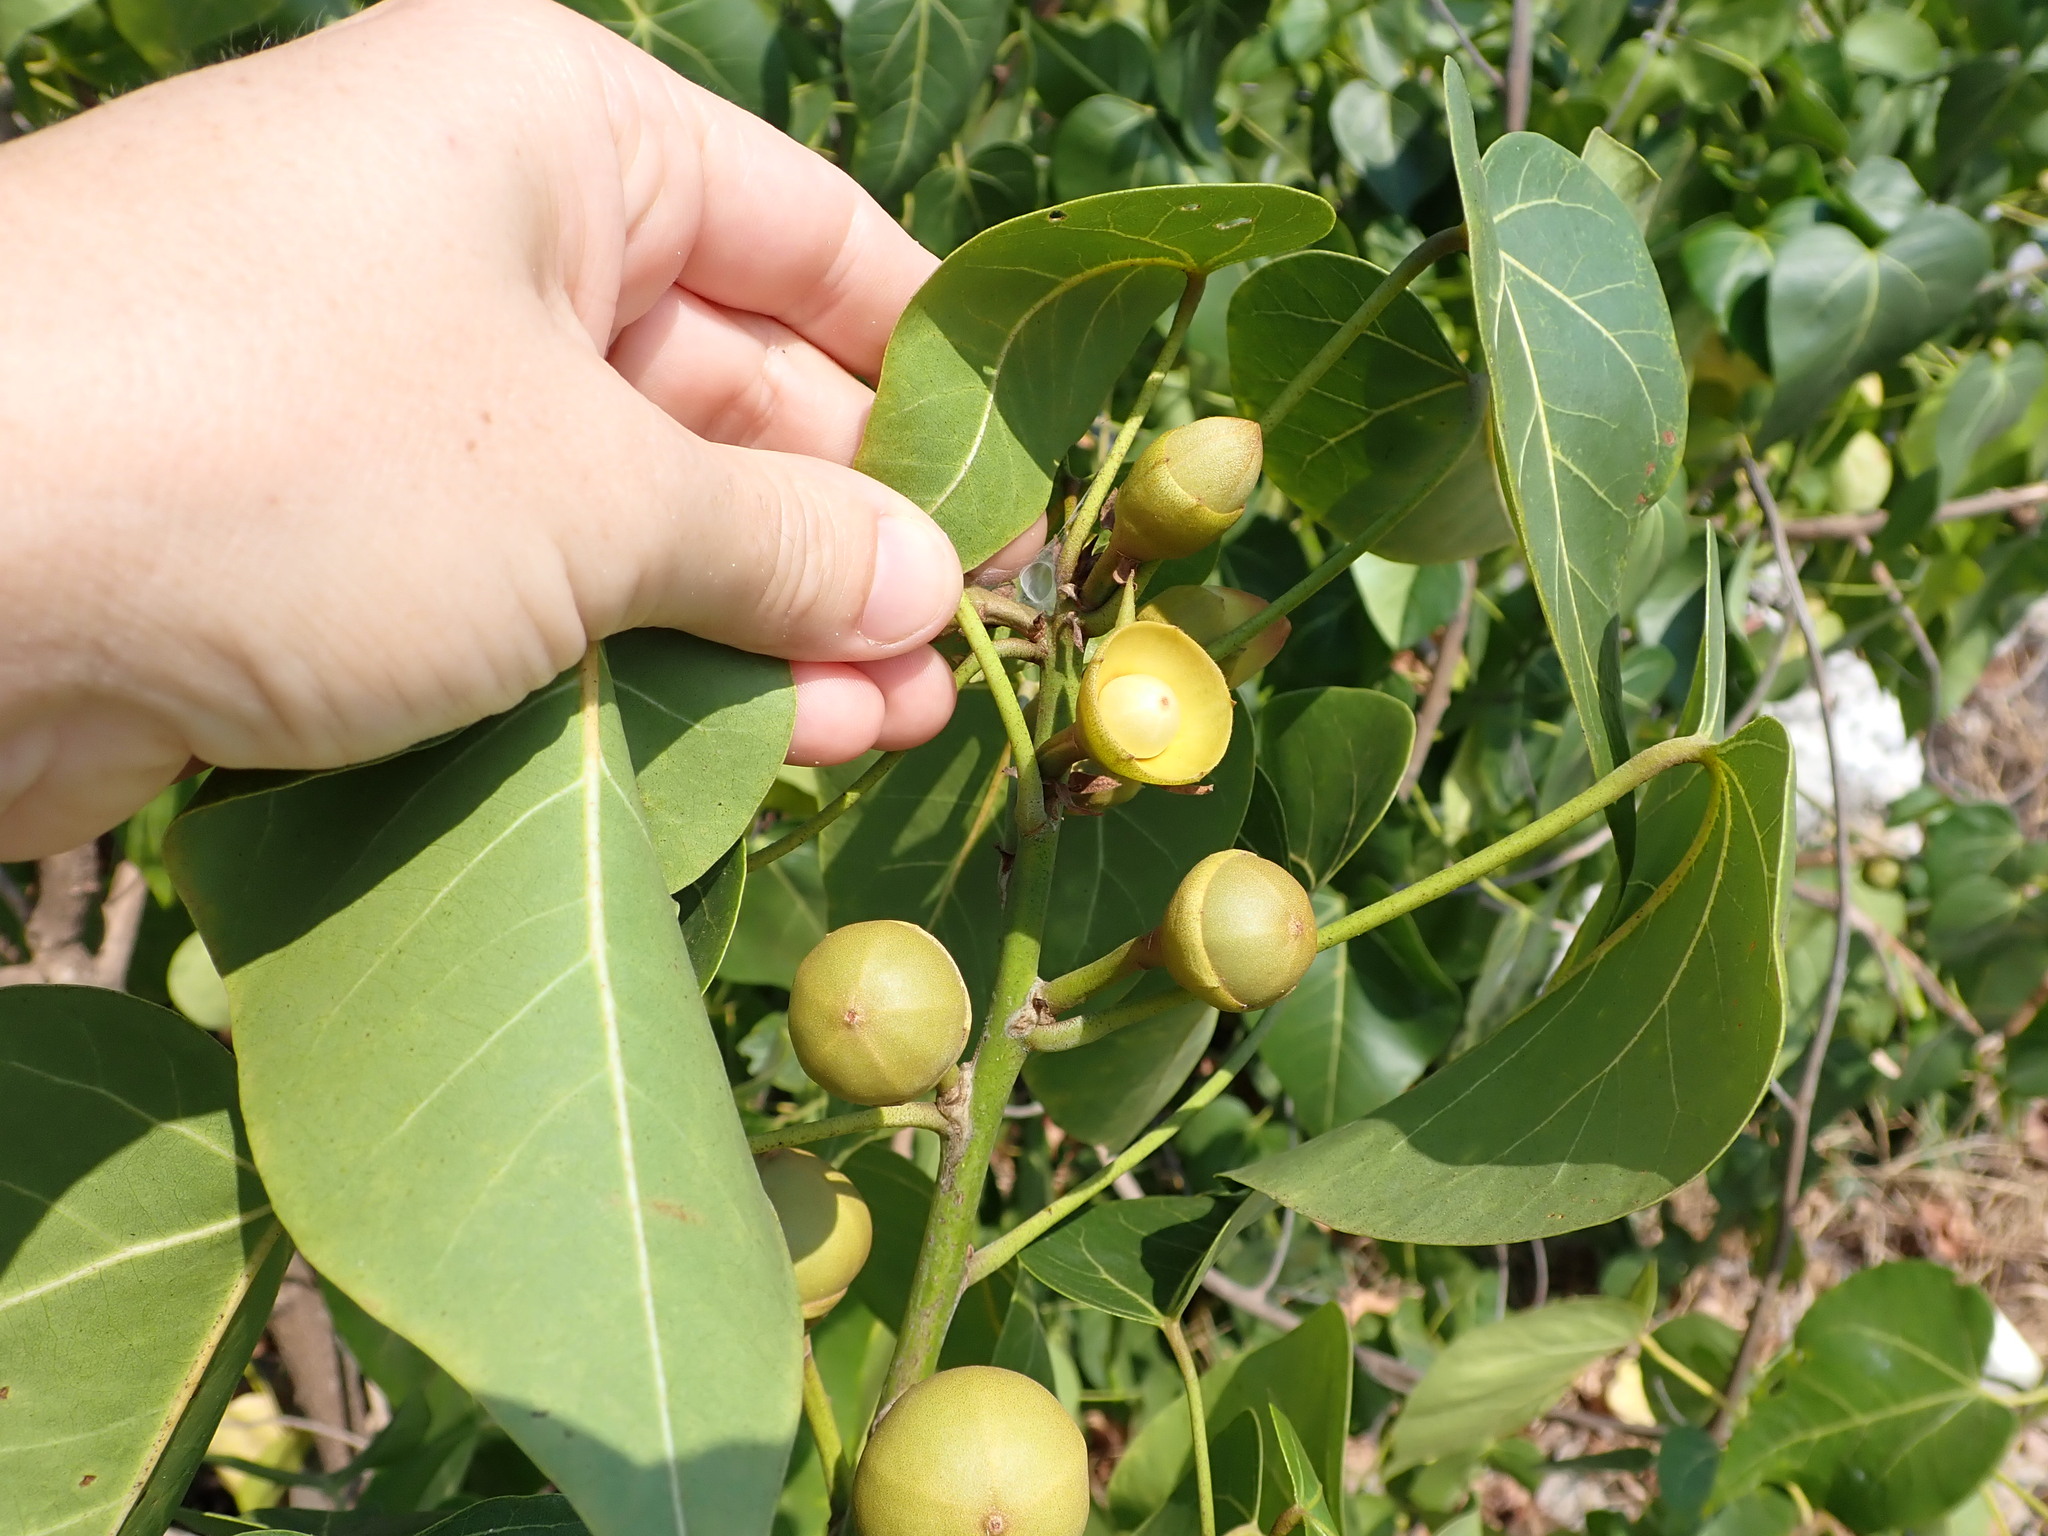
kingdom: Plantae
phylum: Tracheophyta
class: Magnoliopsida
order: Malvales
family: Malvaceae
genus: Thespesia
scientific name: Thespesia populnea
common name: Seaside mahoe
